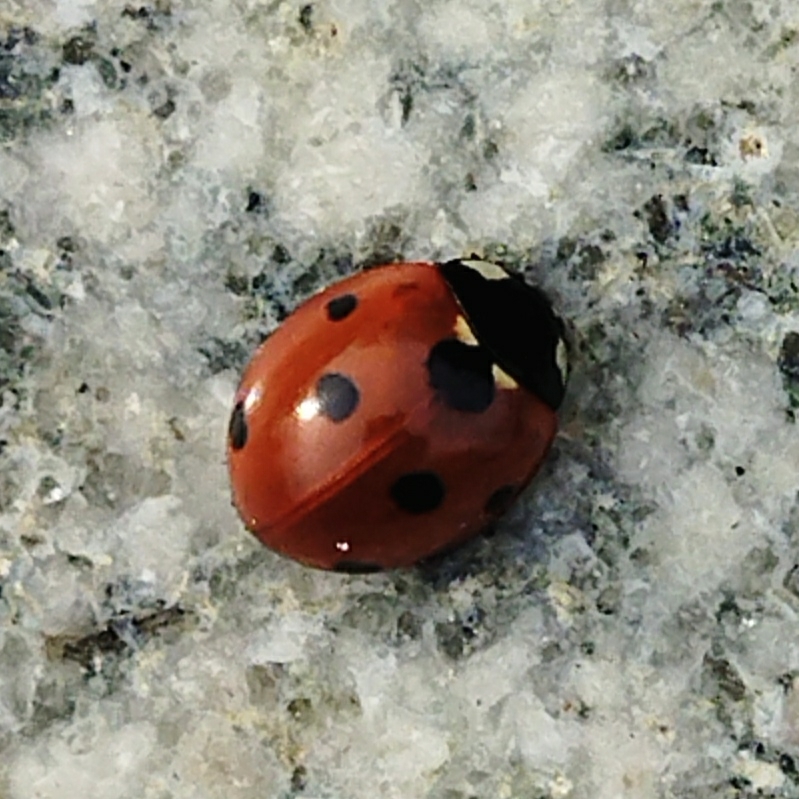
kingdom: Animalia
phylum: Arthropoda
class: Insecta
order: Coleoptera
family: Coccinellidae
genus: Coccinella
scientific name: Coccinella septempunctata
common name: Sevenspotted lady beetle
